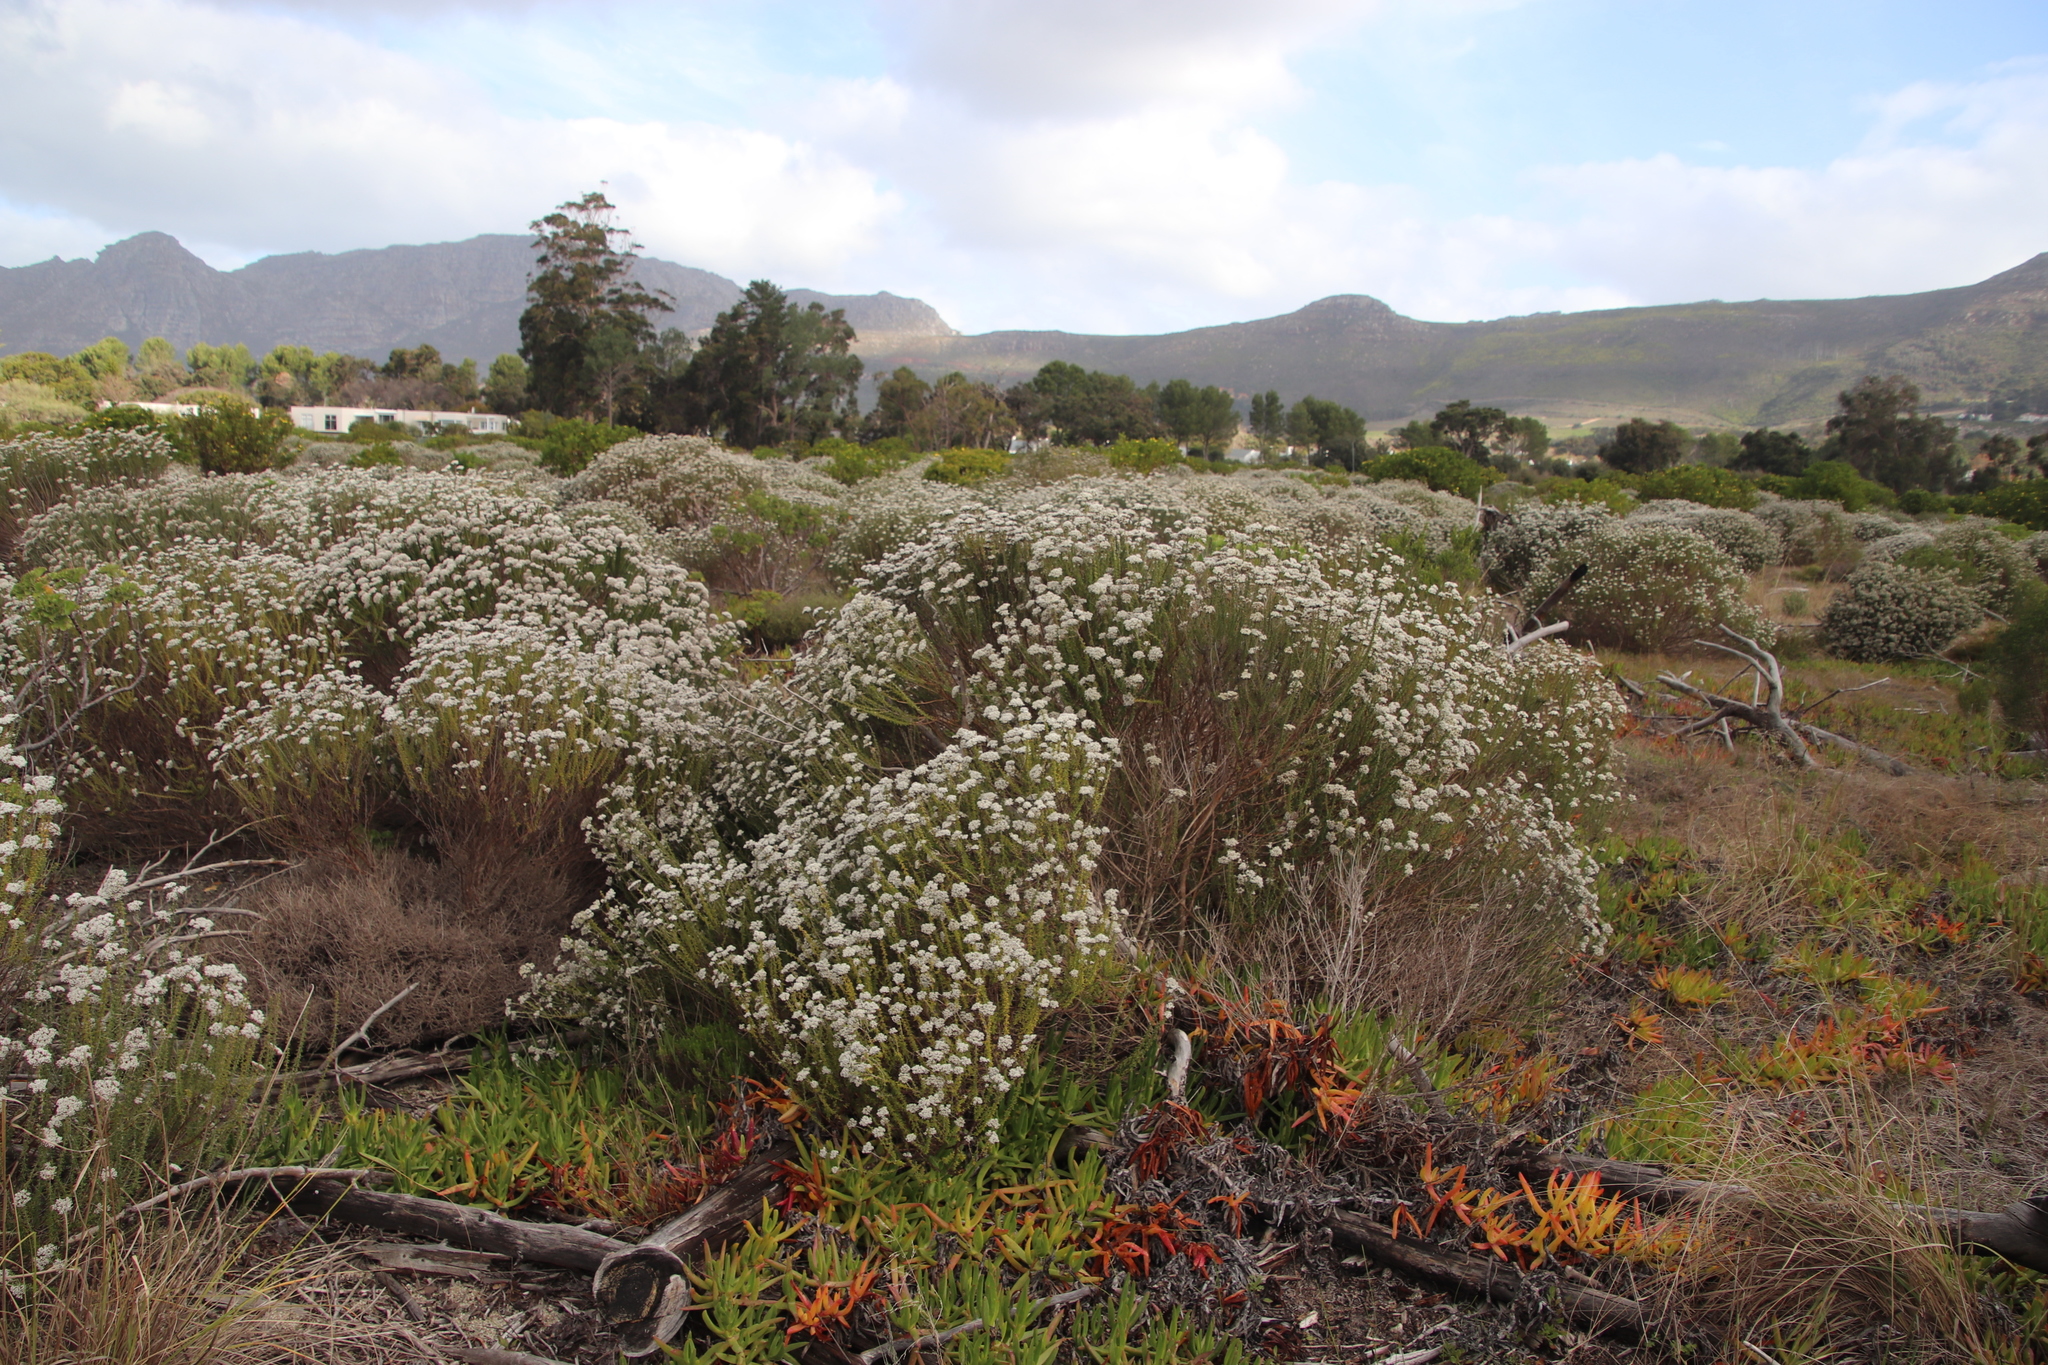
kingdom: Plantae
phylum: Tracheophyta
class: Magnoliopsida
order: Asterales
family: Asteraceae
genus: Metalasia
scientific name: Metalasia densa
